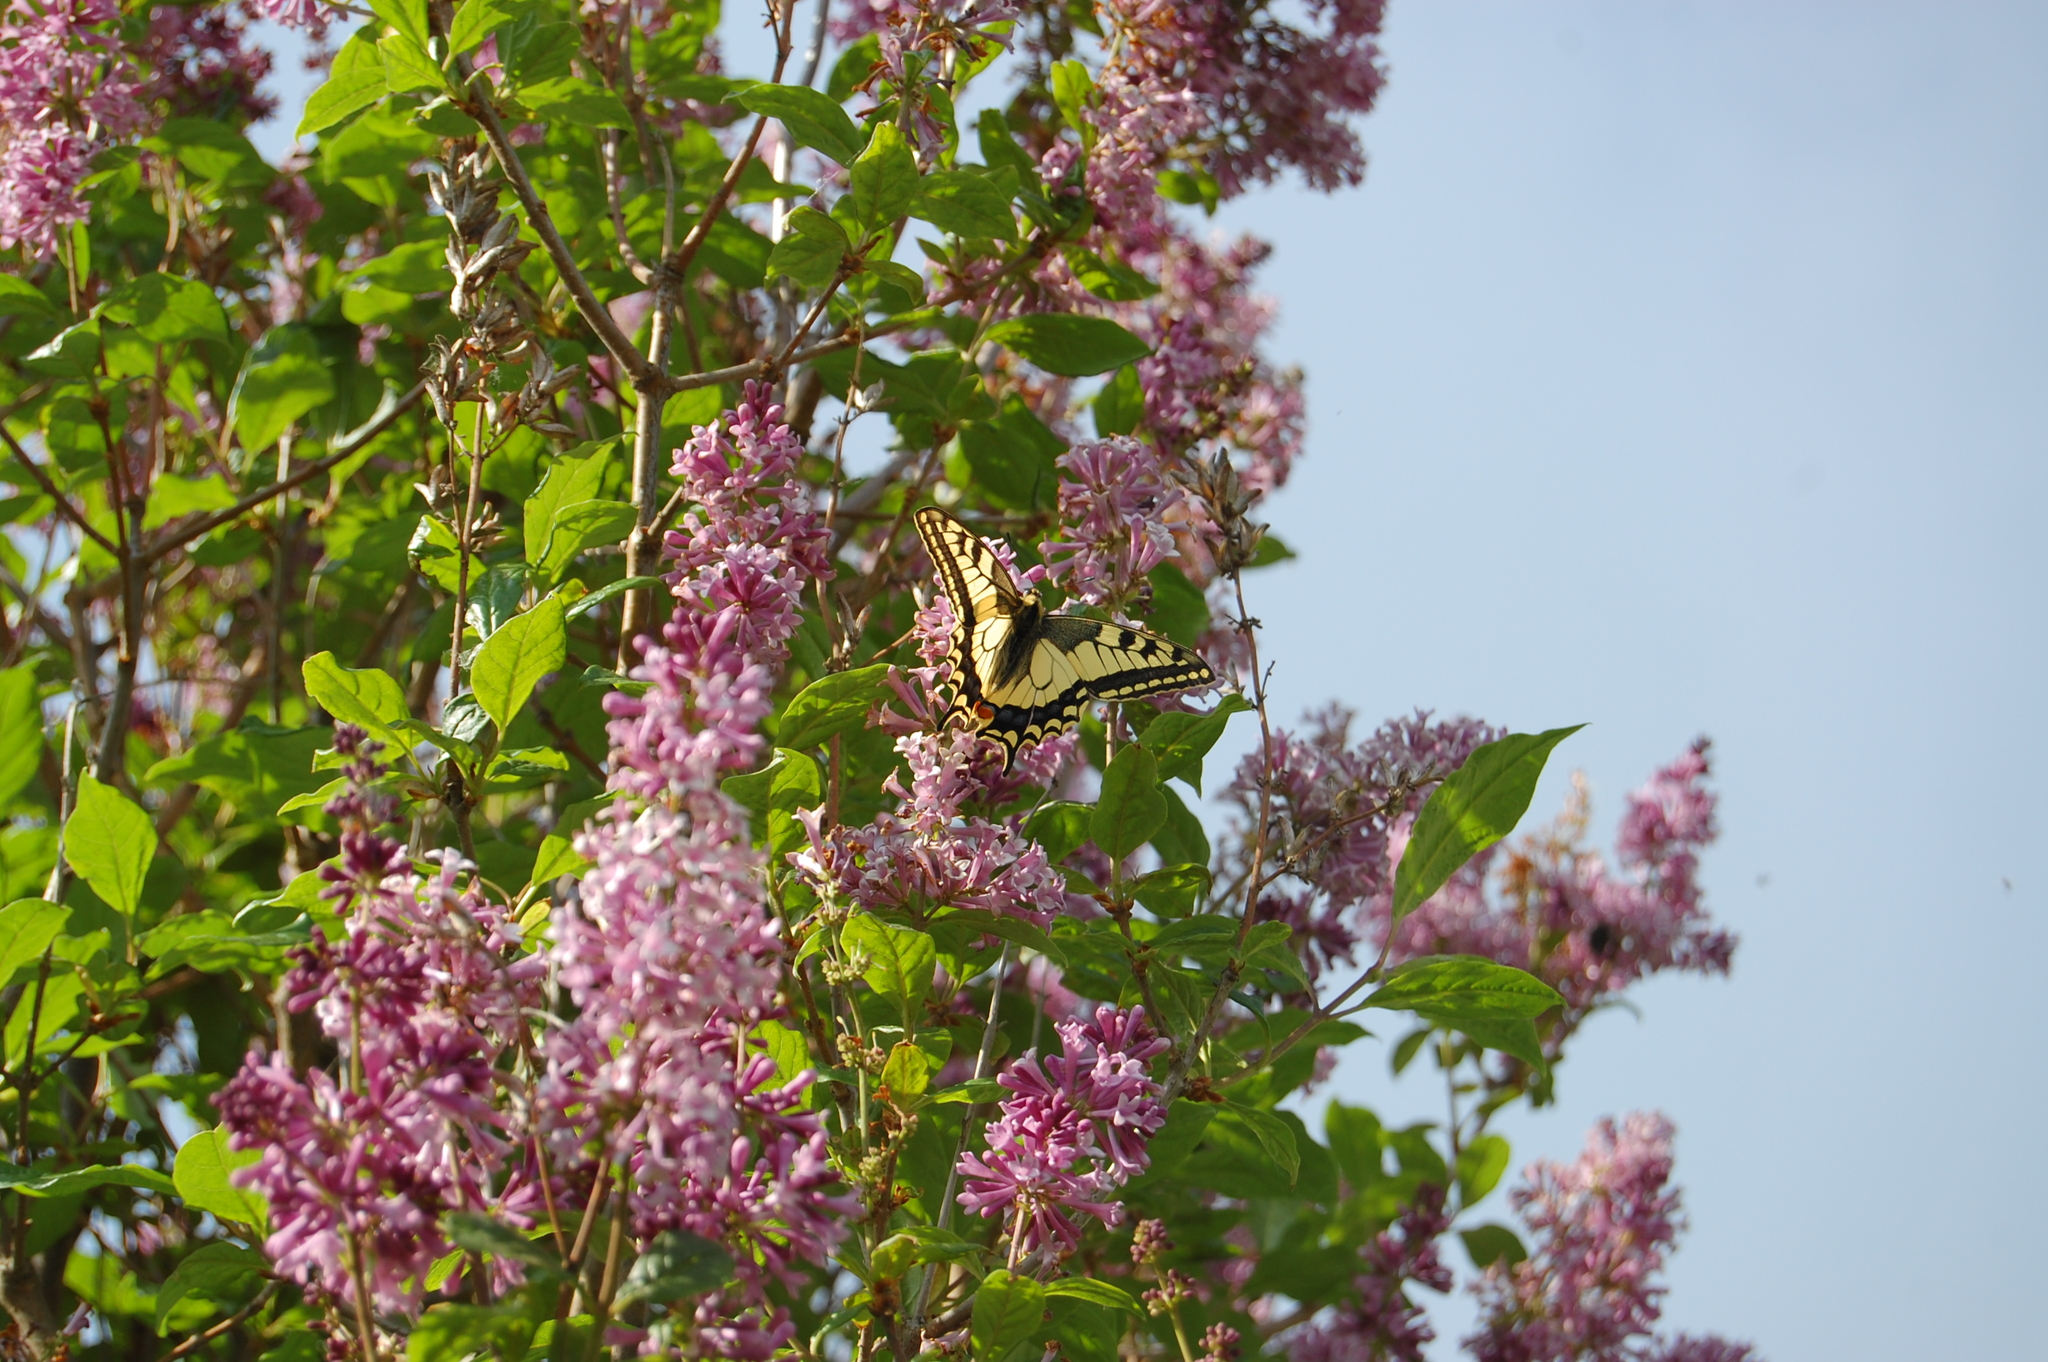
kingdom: Animalia
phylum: Arthropoda
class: Insecta
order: Lepidoptera
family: Papilionidae
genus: Papilio
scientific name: Papilio machaon
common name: Swallowtail
